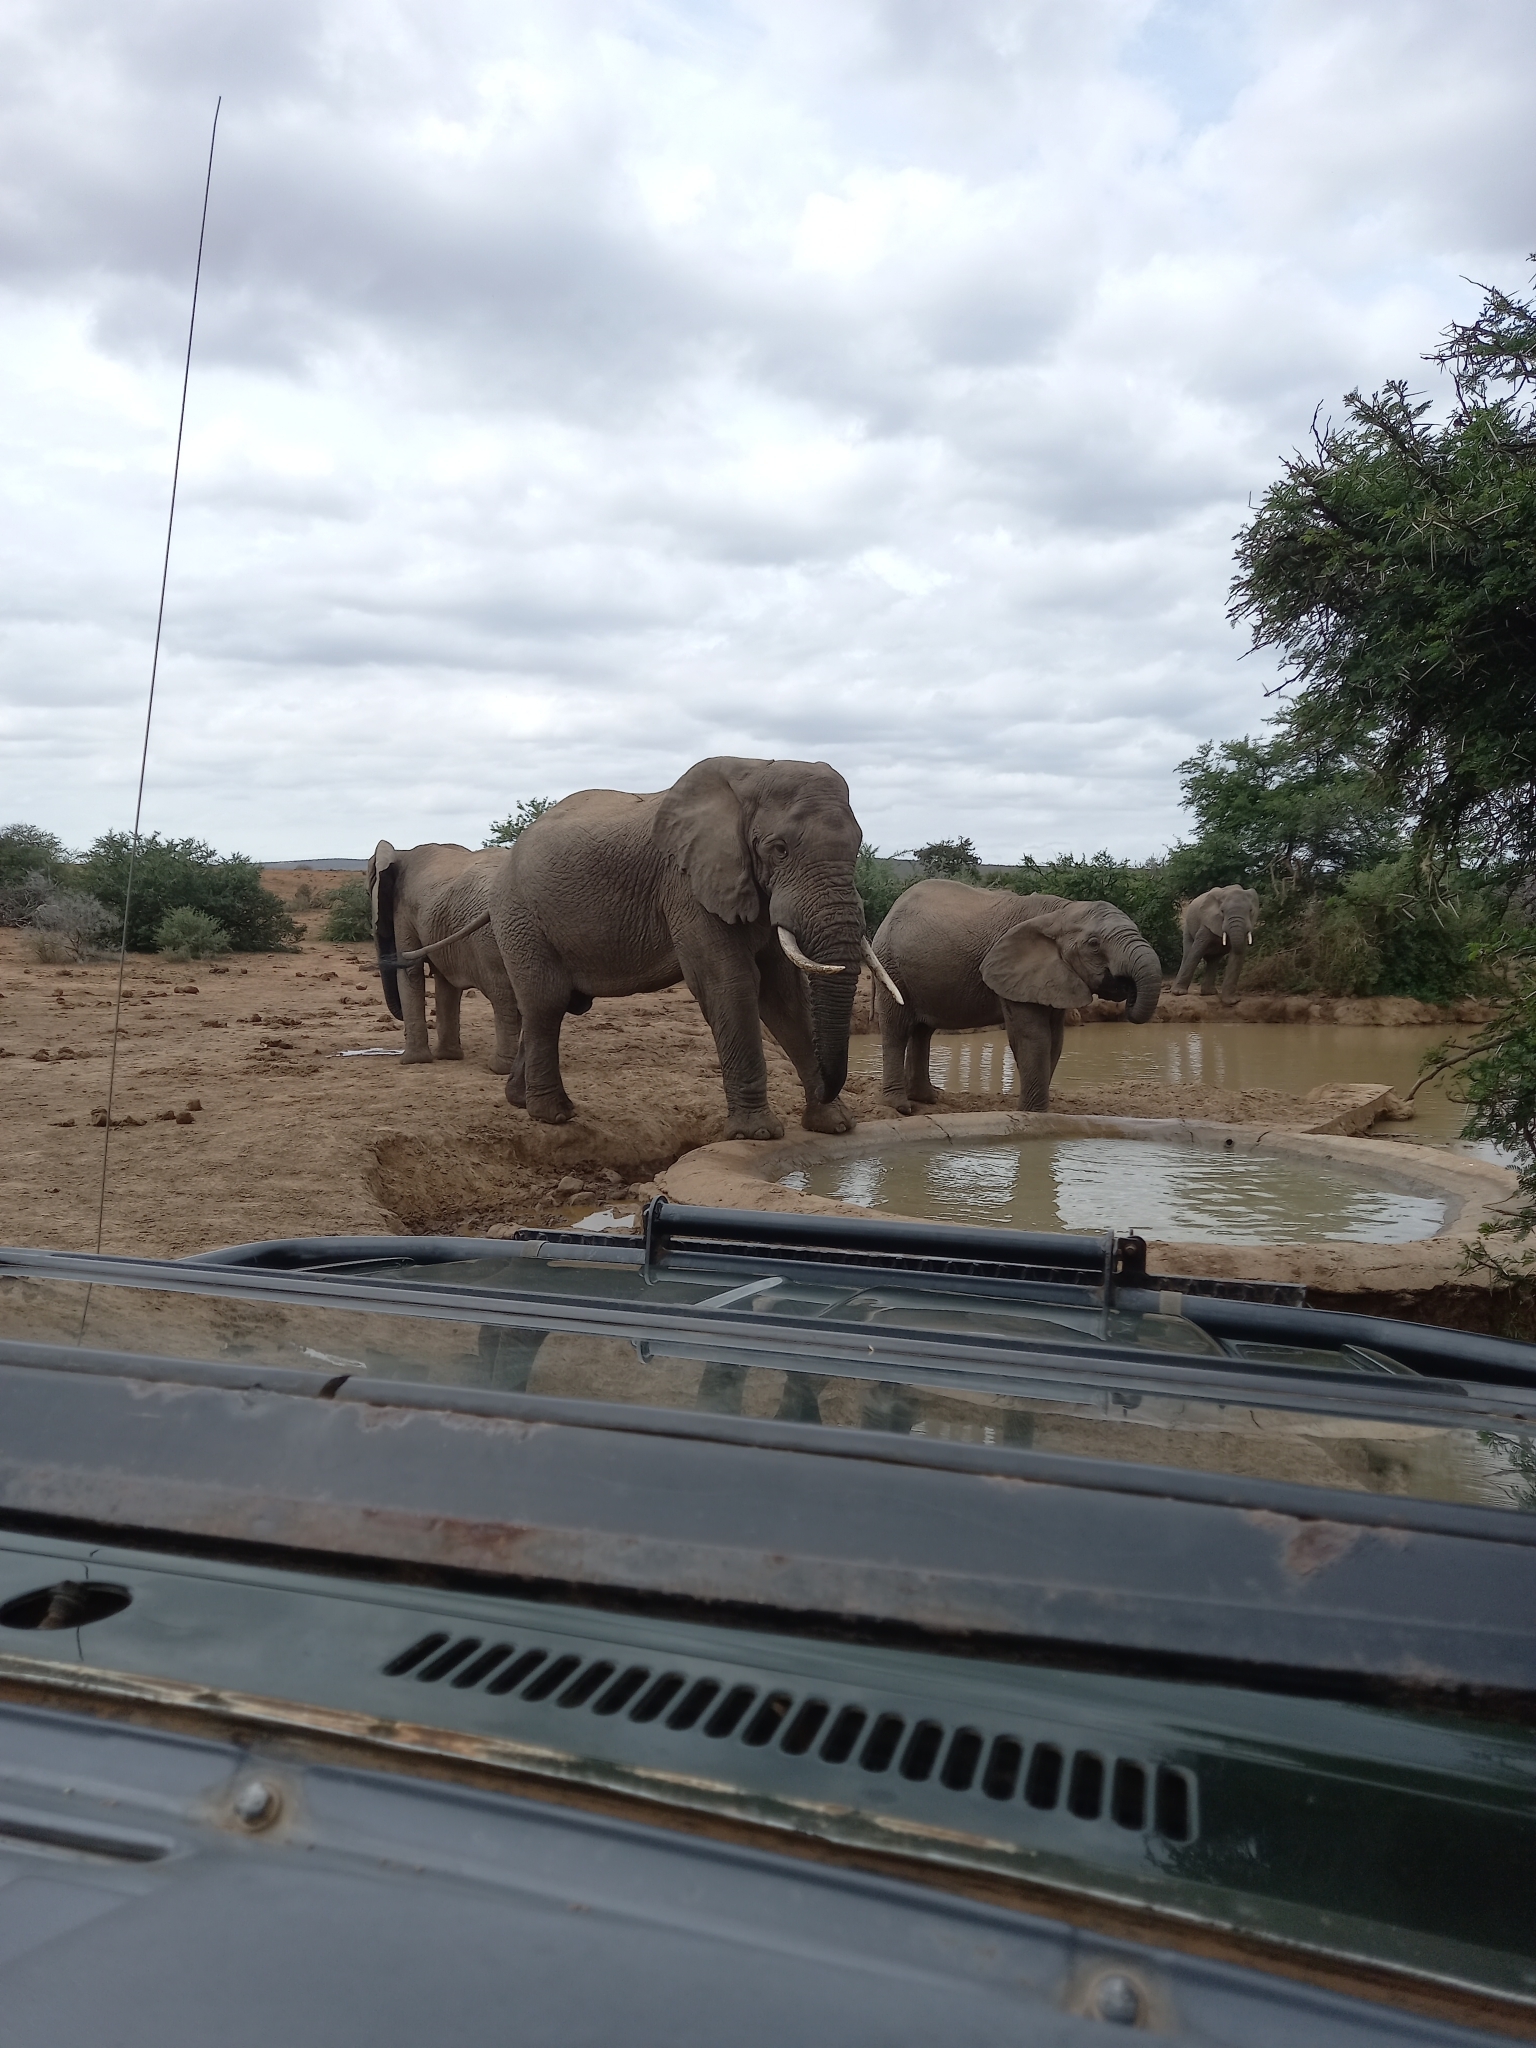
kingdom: Animalia
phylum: Chordata
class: Mammalia
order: Proboscidea
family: Elephantidae
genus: Loxodonta
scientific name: Loxodonta africana
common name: African elephant
